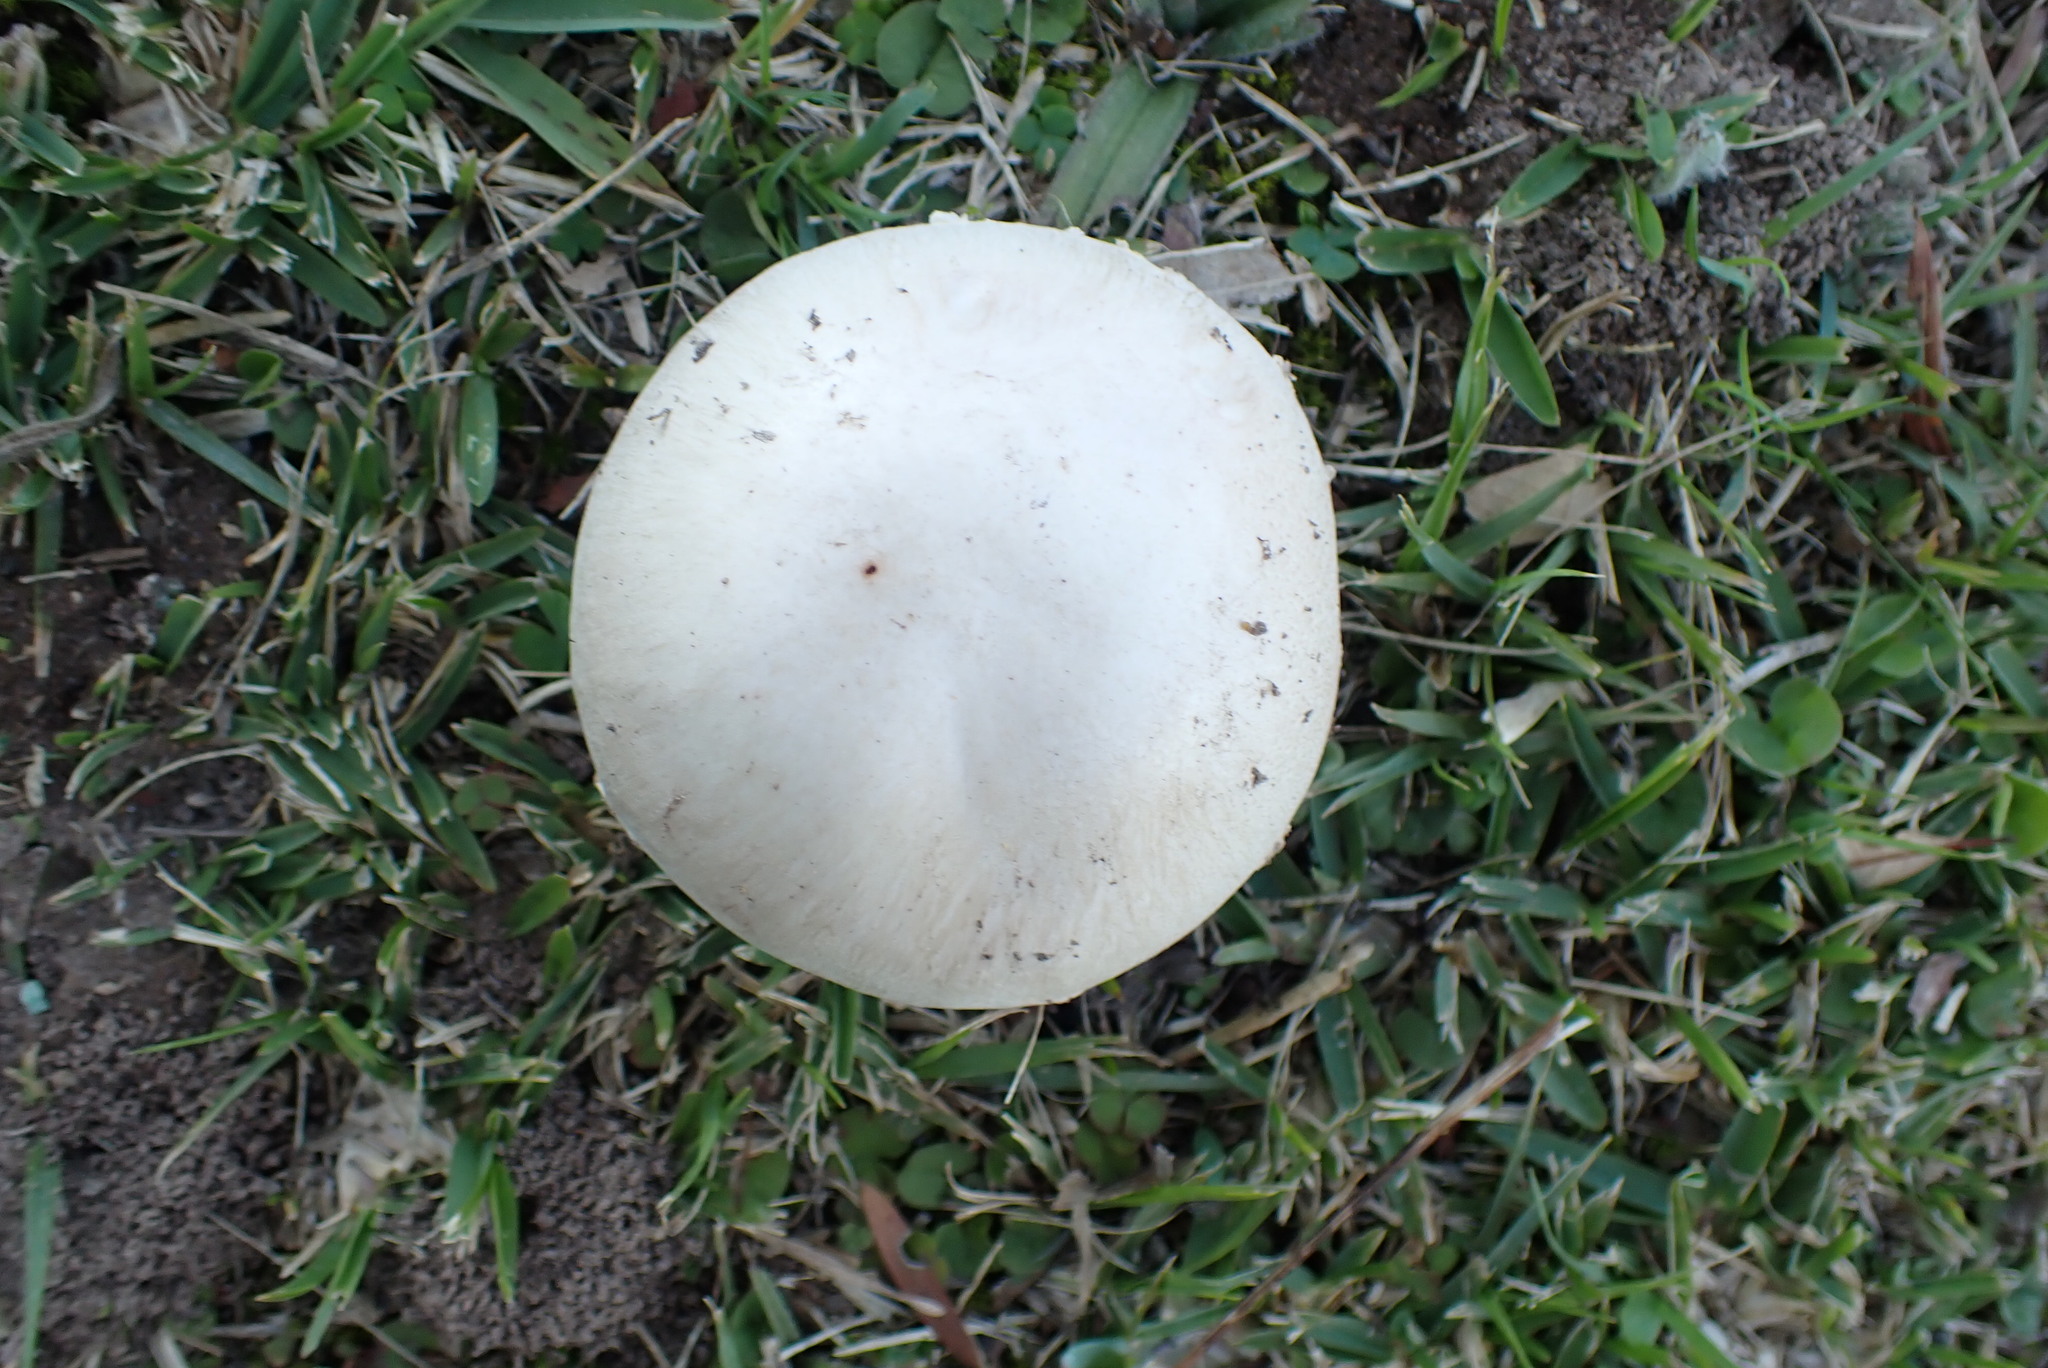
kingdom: Fungi
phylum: Basidiomycota
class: Agaricomycetes
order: Agaricales
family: Agaricaceae
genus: Agaricus
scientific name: Agaricus campestris
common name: Field mushroom
